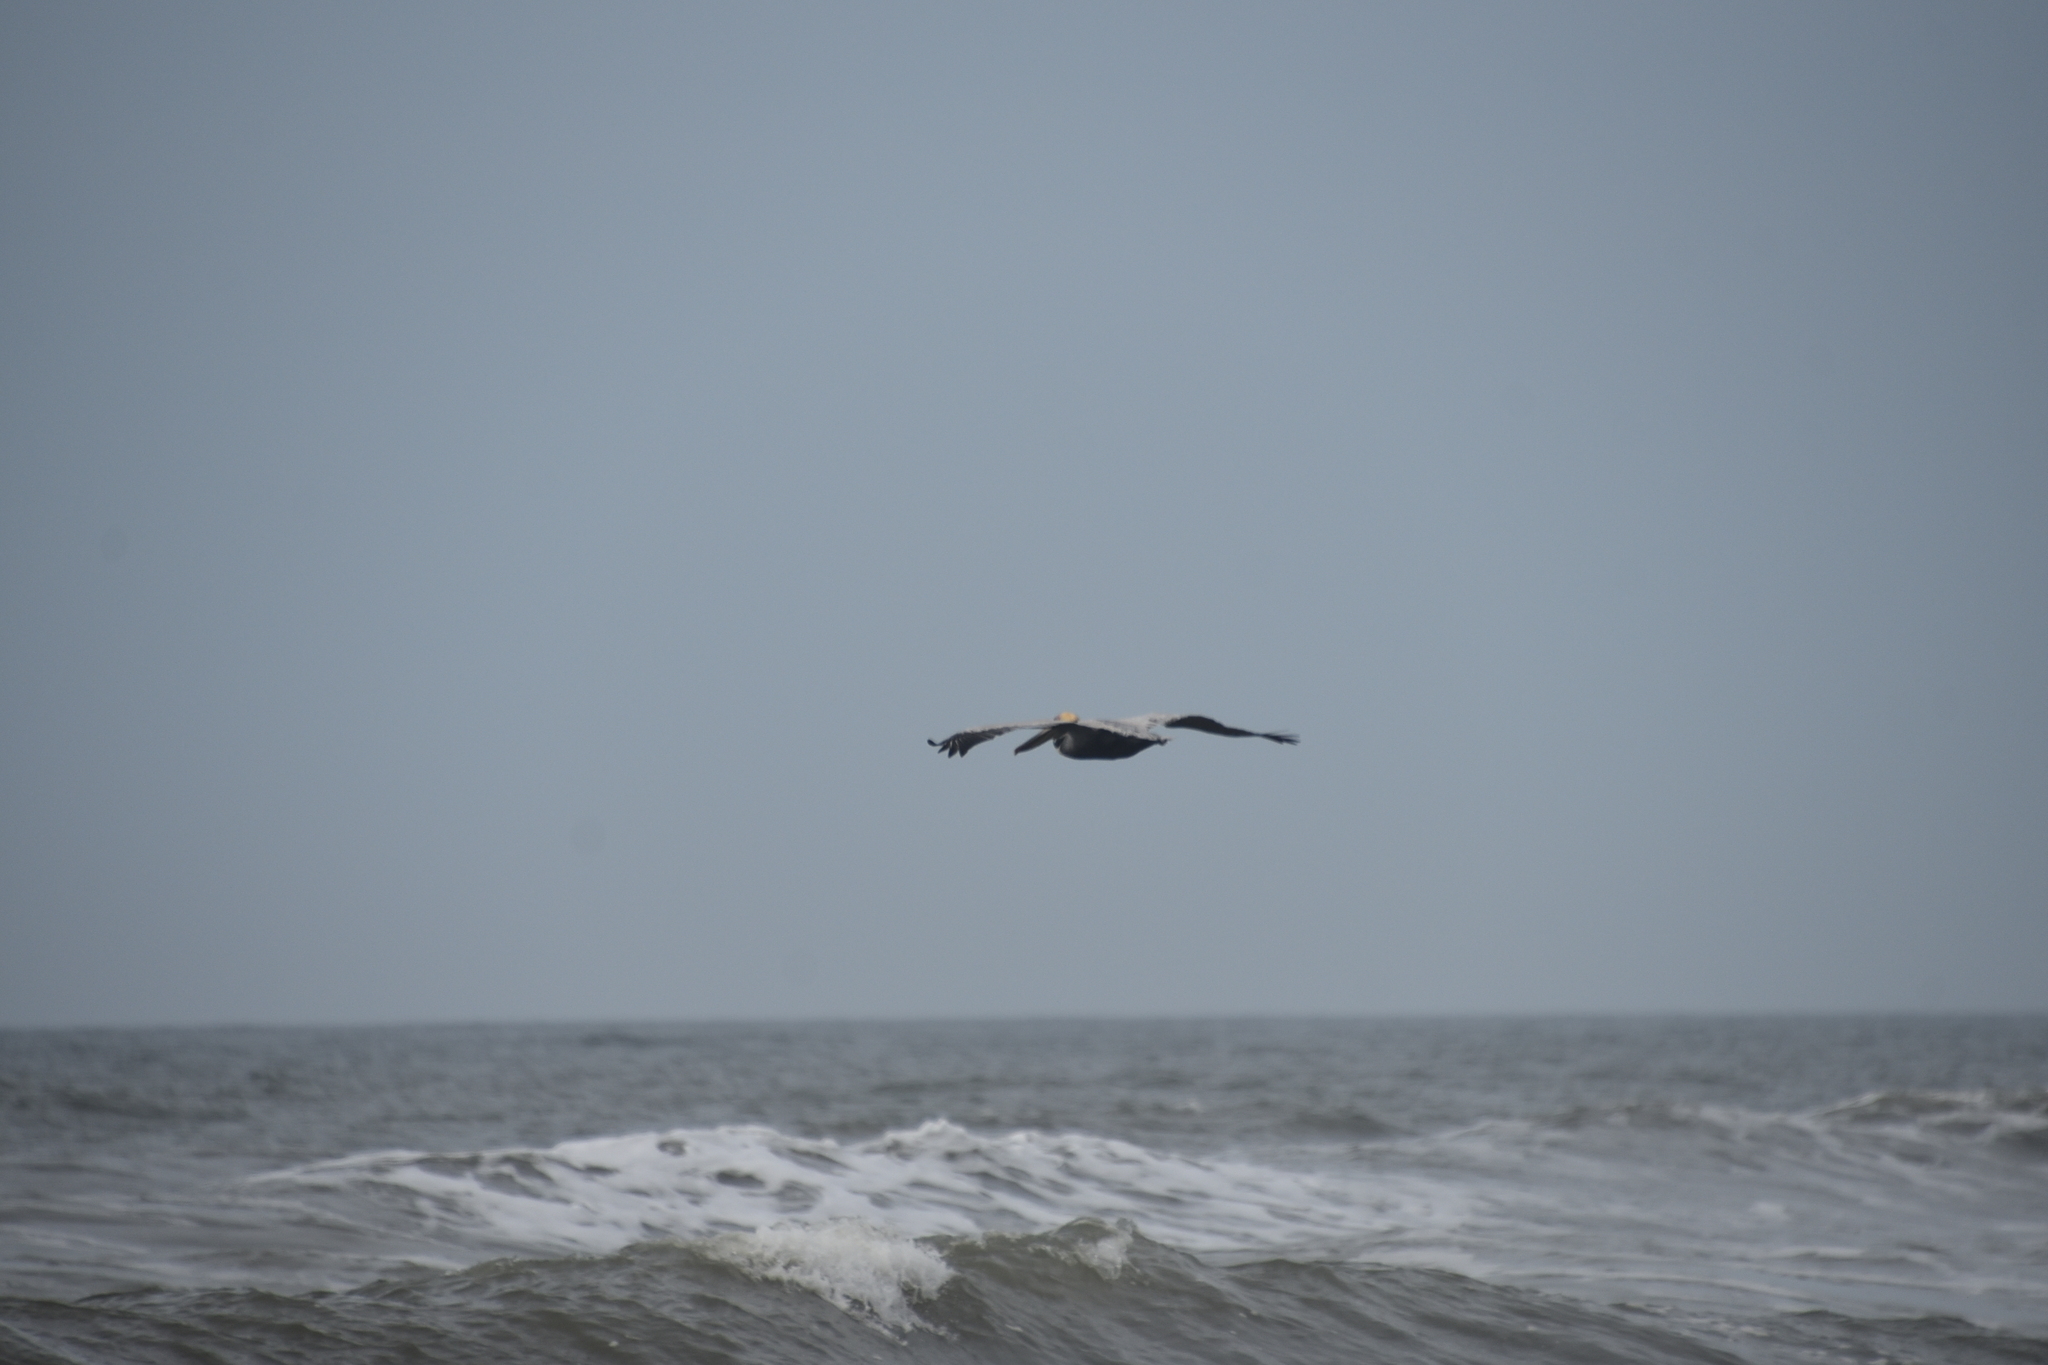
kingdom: Animalia
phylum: Chordata
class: Aves
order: Pelecaniformes
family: Pelecanidae
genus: Pelecanus
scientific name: Pelecanus occidentalis
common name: Brown pelican
